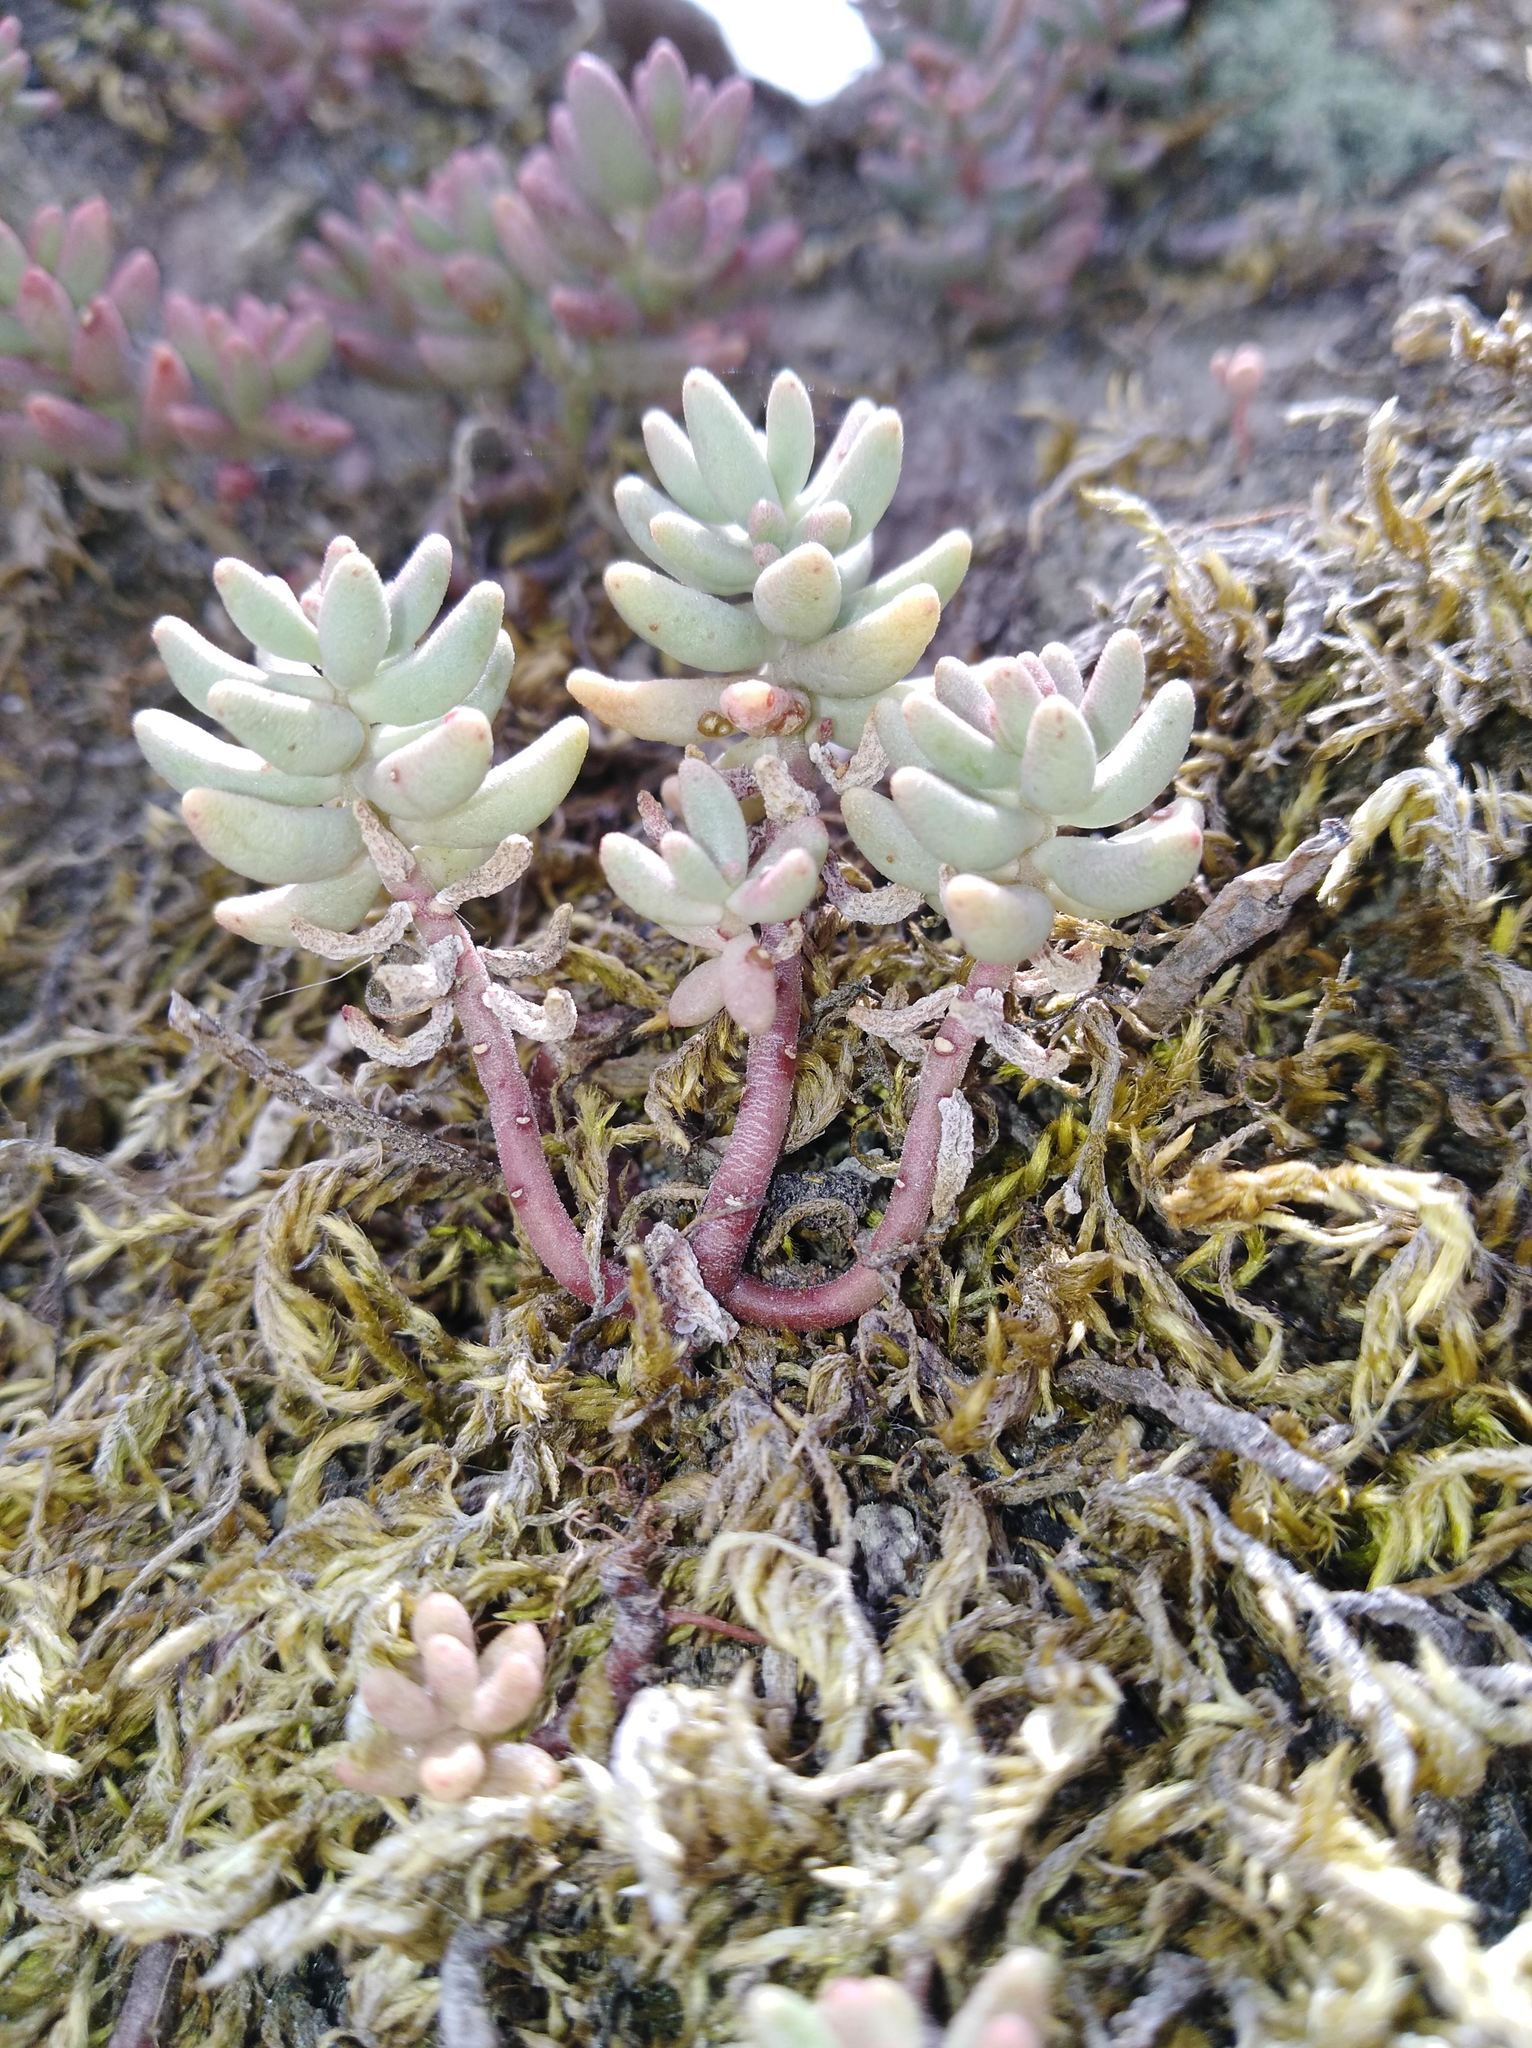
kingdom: Plantae
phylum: Tracheophyta
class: Magnoliopsida
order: Saxifragales
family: Crassulaceae
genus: Sedum
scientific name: Sedum album
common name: White stonecrop
